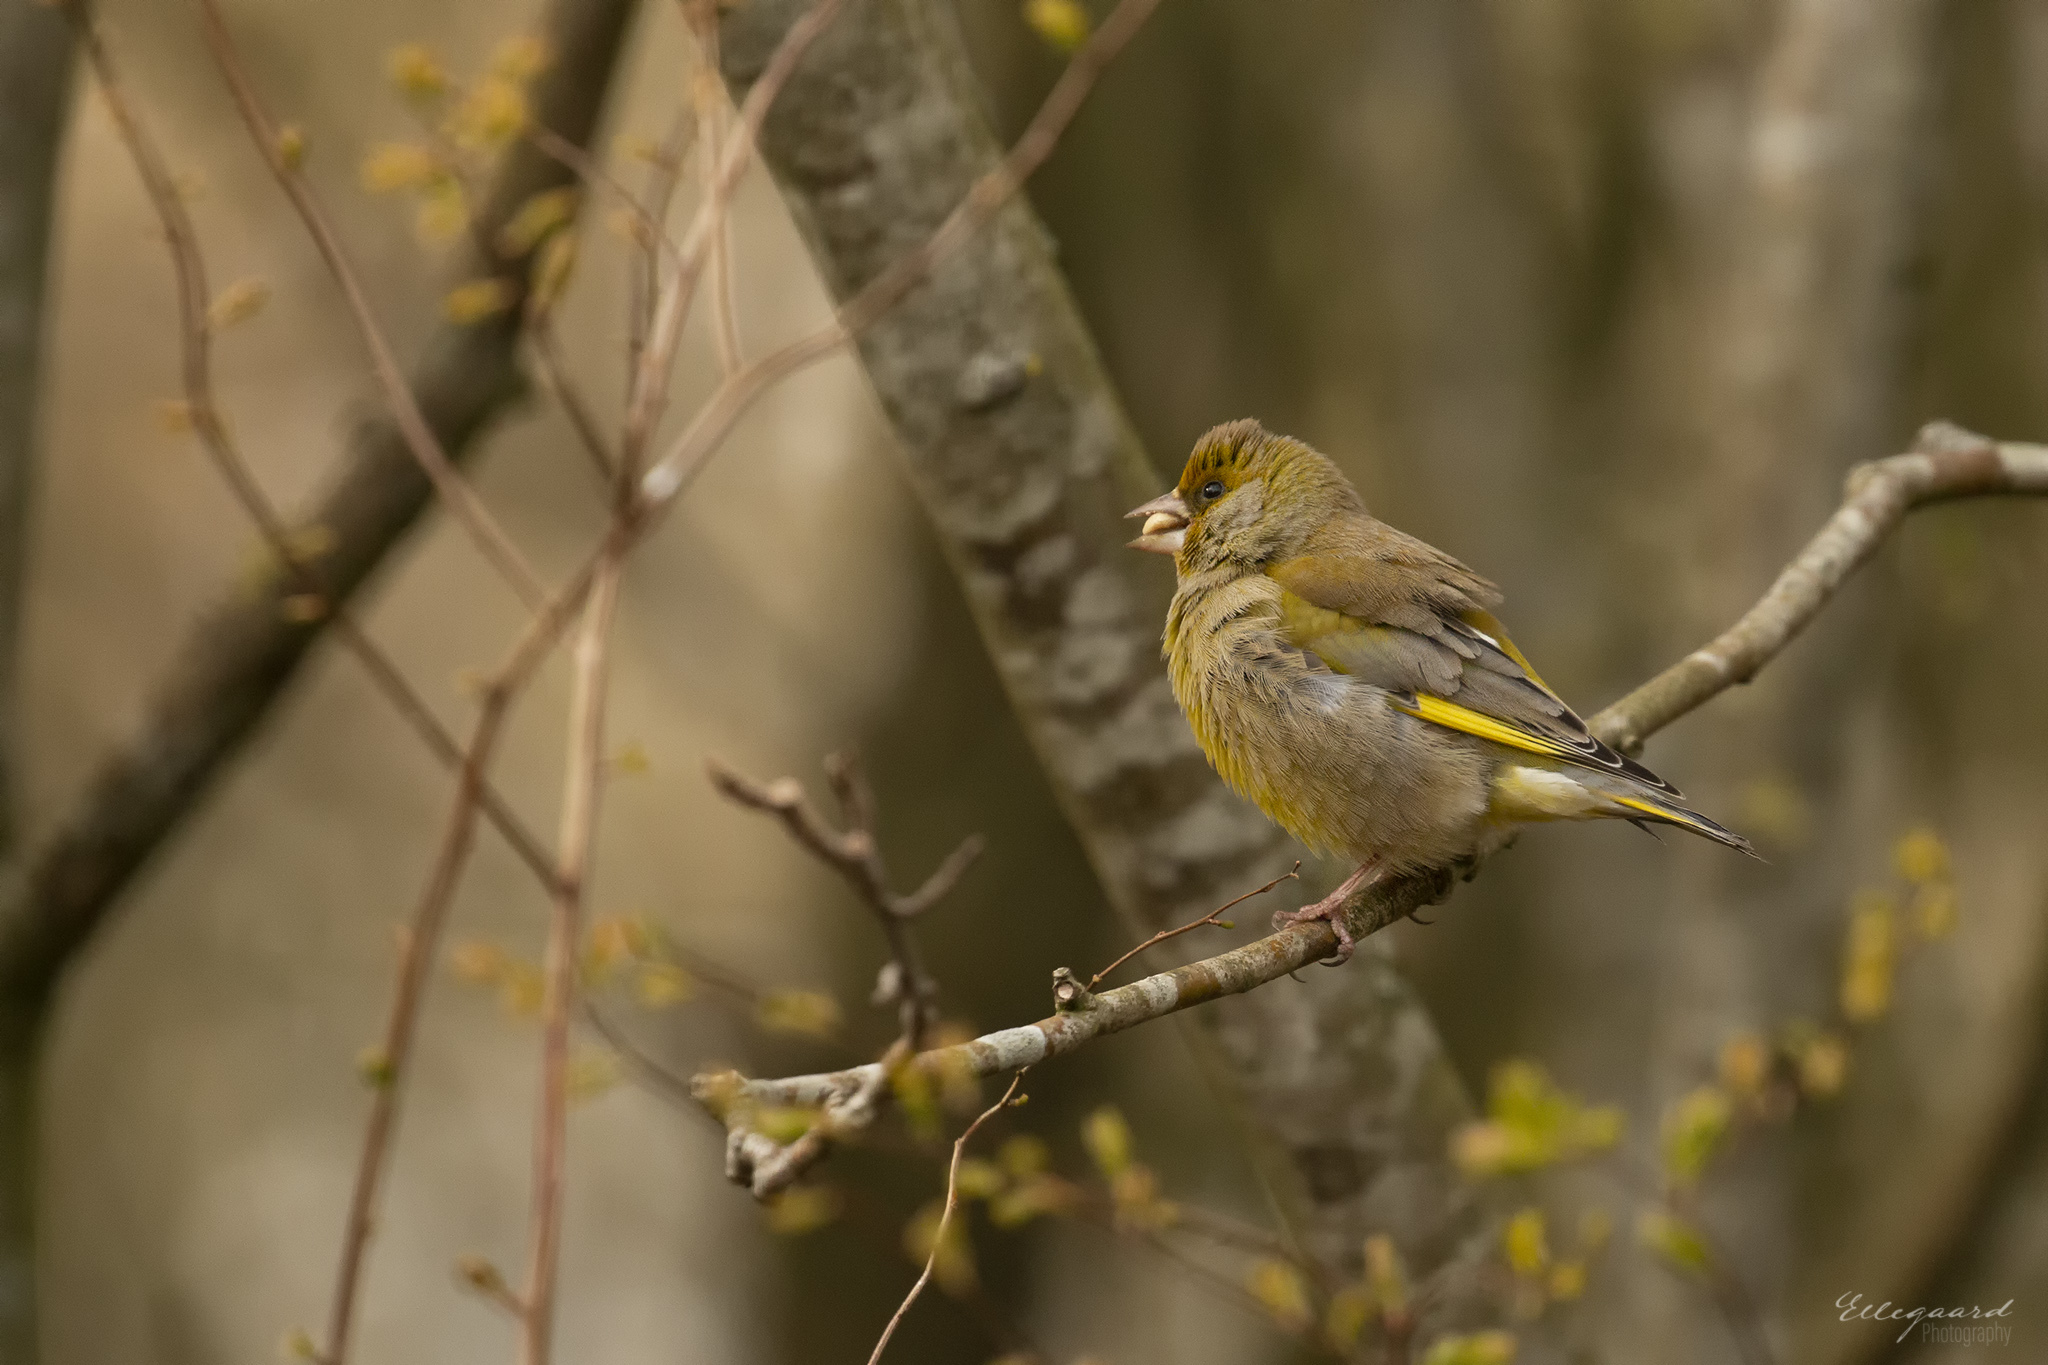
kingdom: Plantae
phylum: Tracheophyta
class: Liliopsida
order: Poales
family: Poaceae
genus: Chloris
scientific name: Chloris chloris
